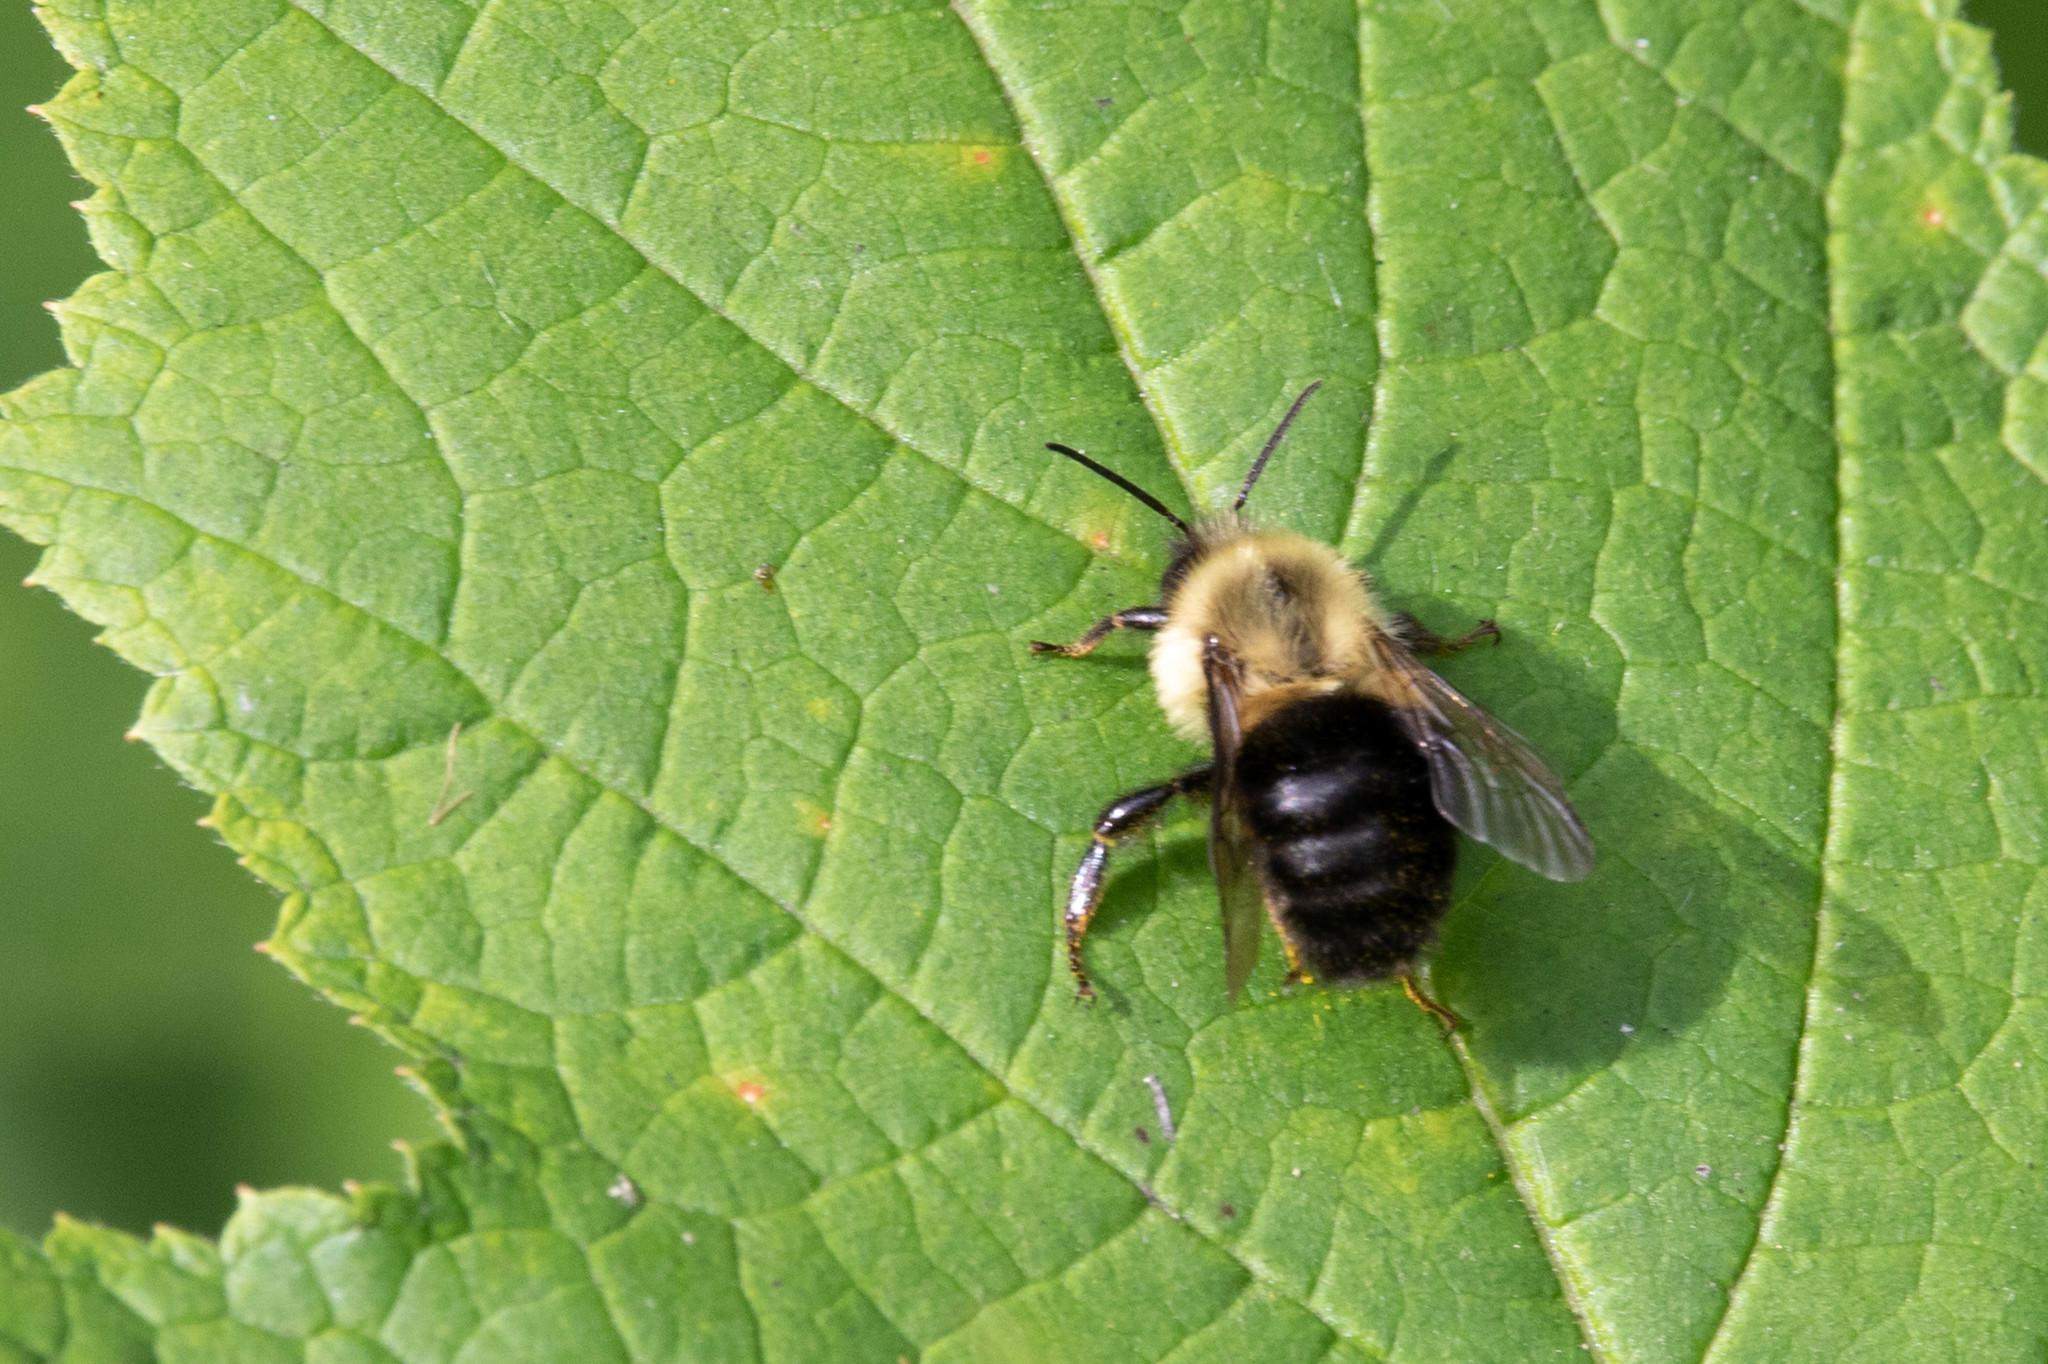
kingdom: Animalia
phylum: Arthropoda
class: Insecta
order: Hymenoptera
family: Apidae
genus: Bombus
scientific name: Bombus impatiens
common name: Common eastern bumble bee
